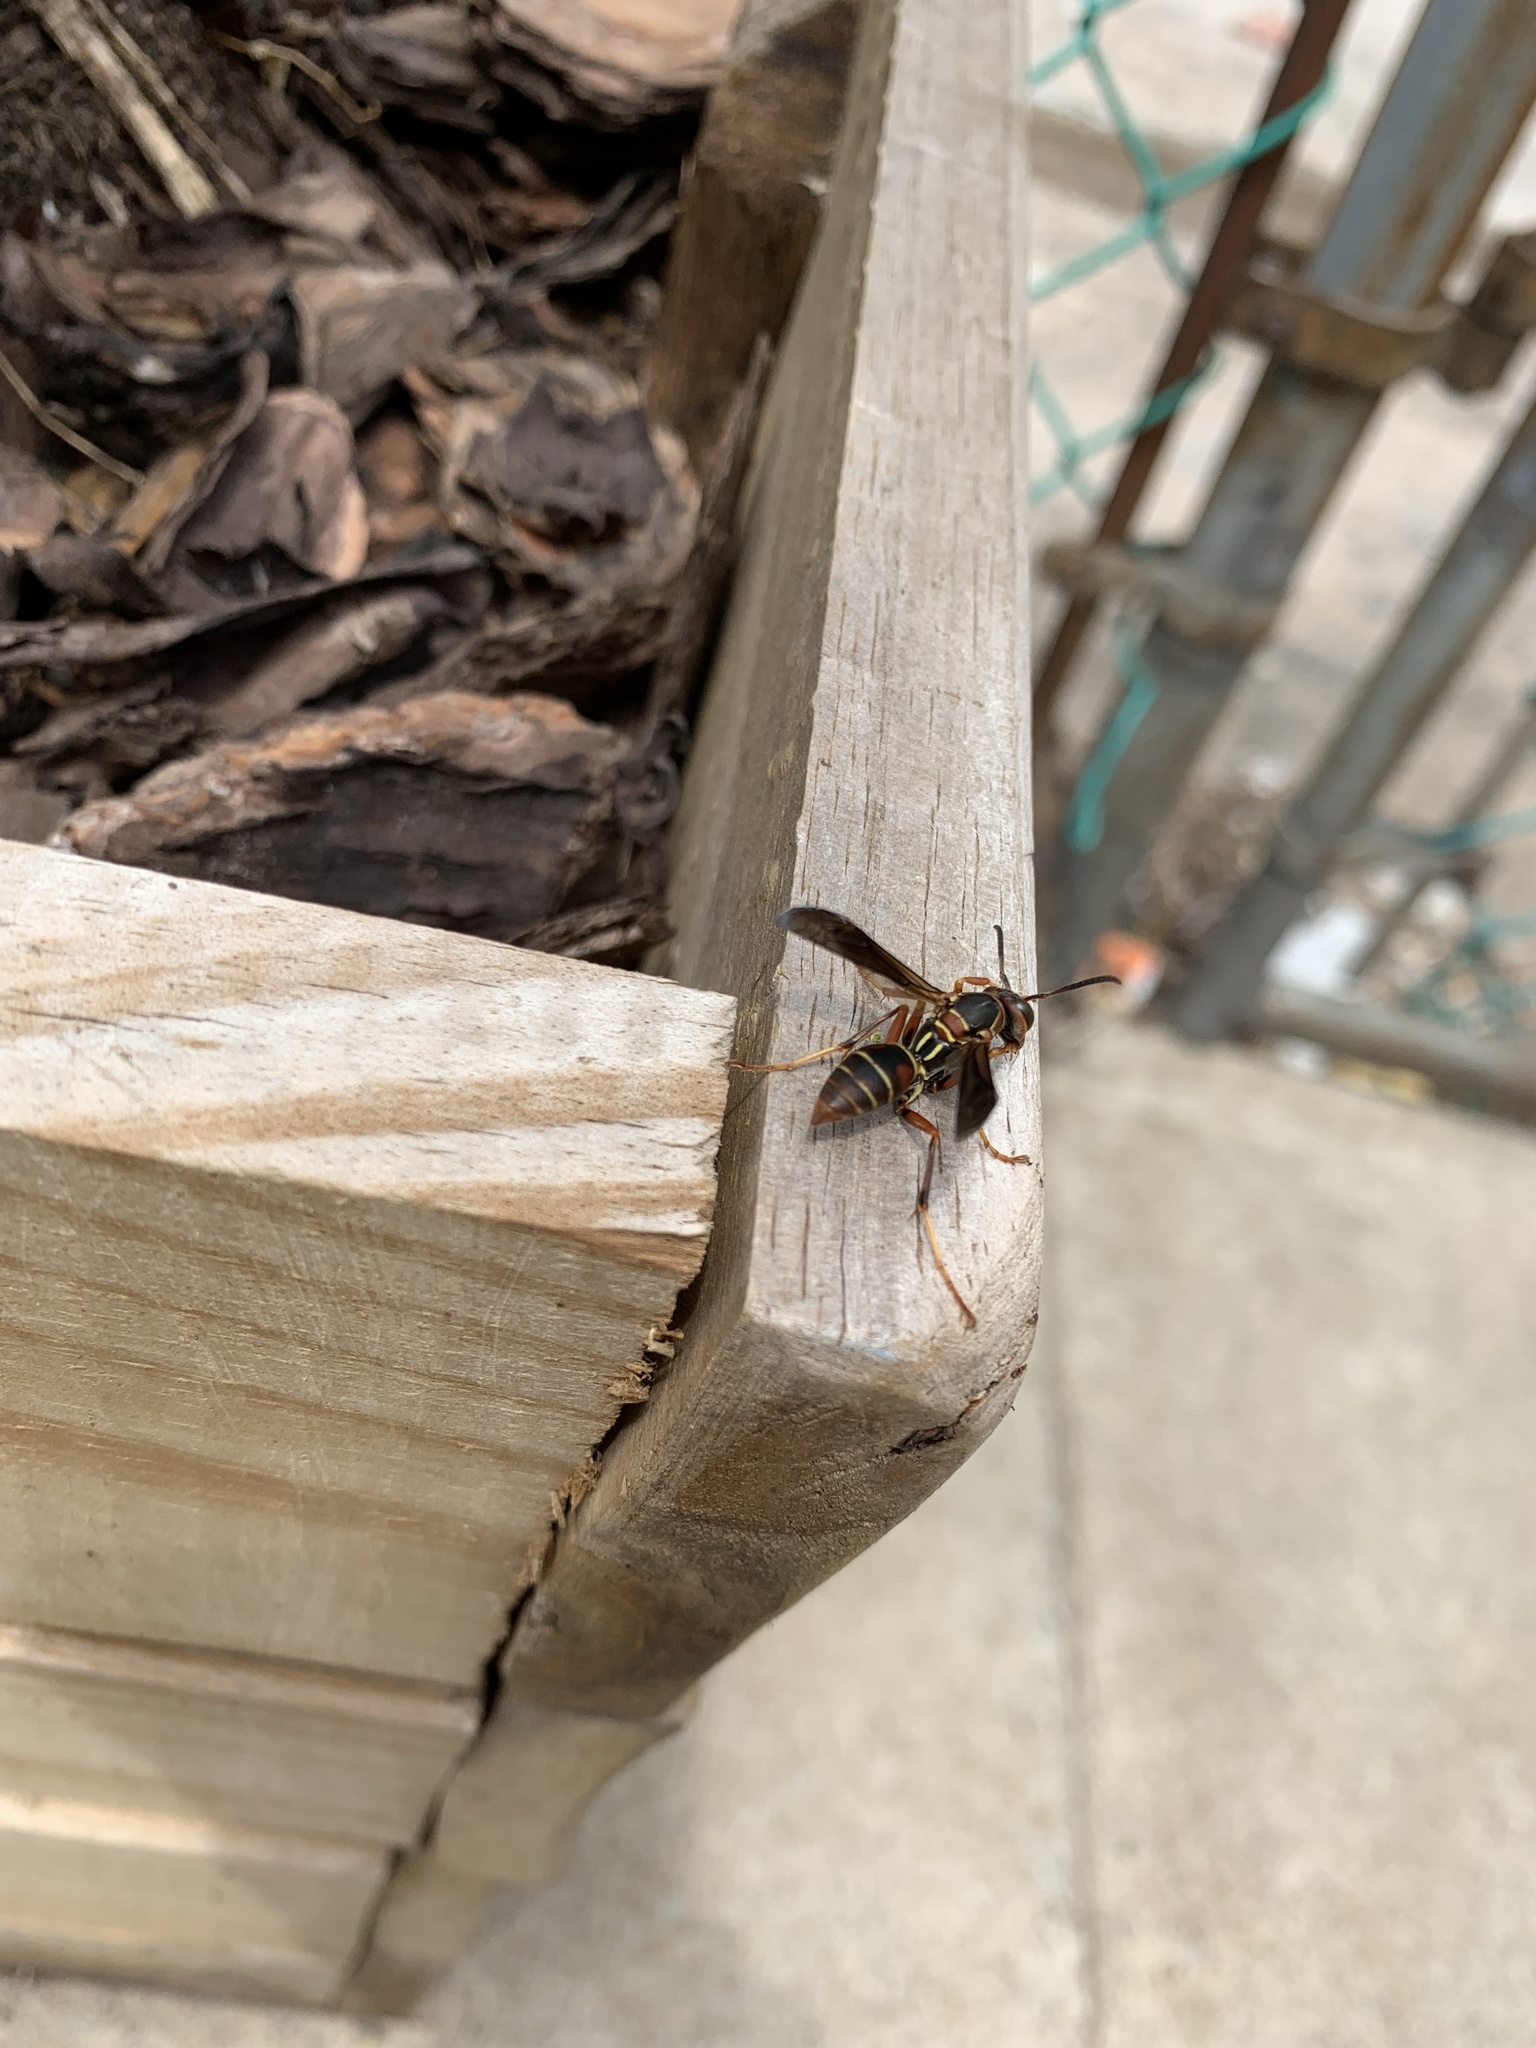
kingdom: Animalia
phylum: Arthropoda
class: Insecta
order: Hymenoptera
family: Eumenidae
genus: Polistes
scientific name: Polistes fuscatus
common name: Dark paper wasp
